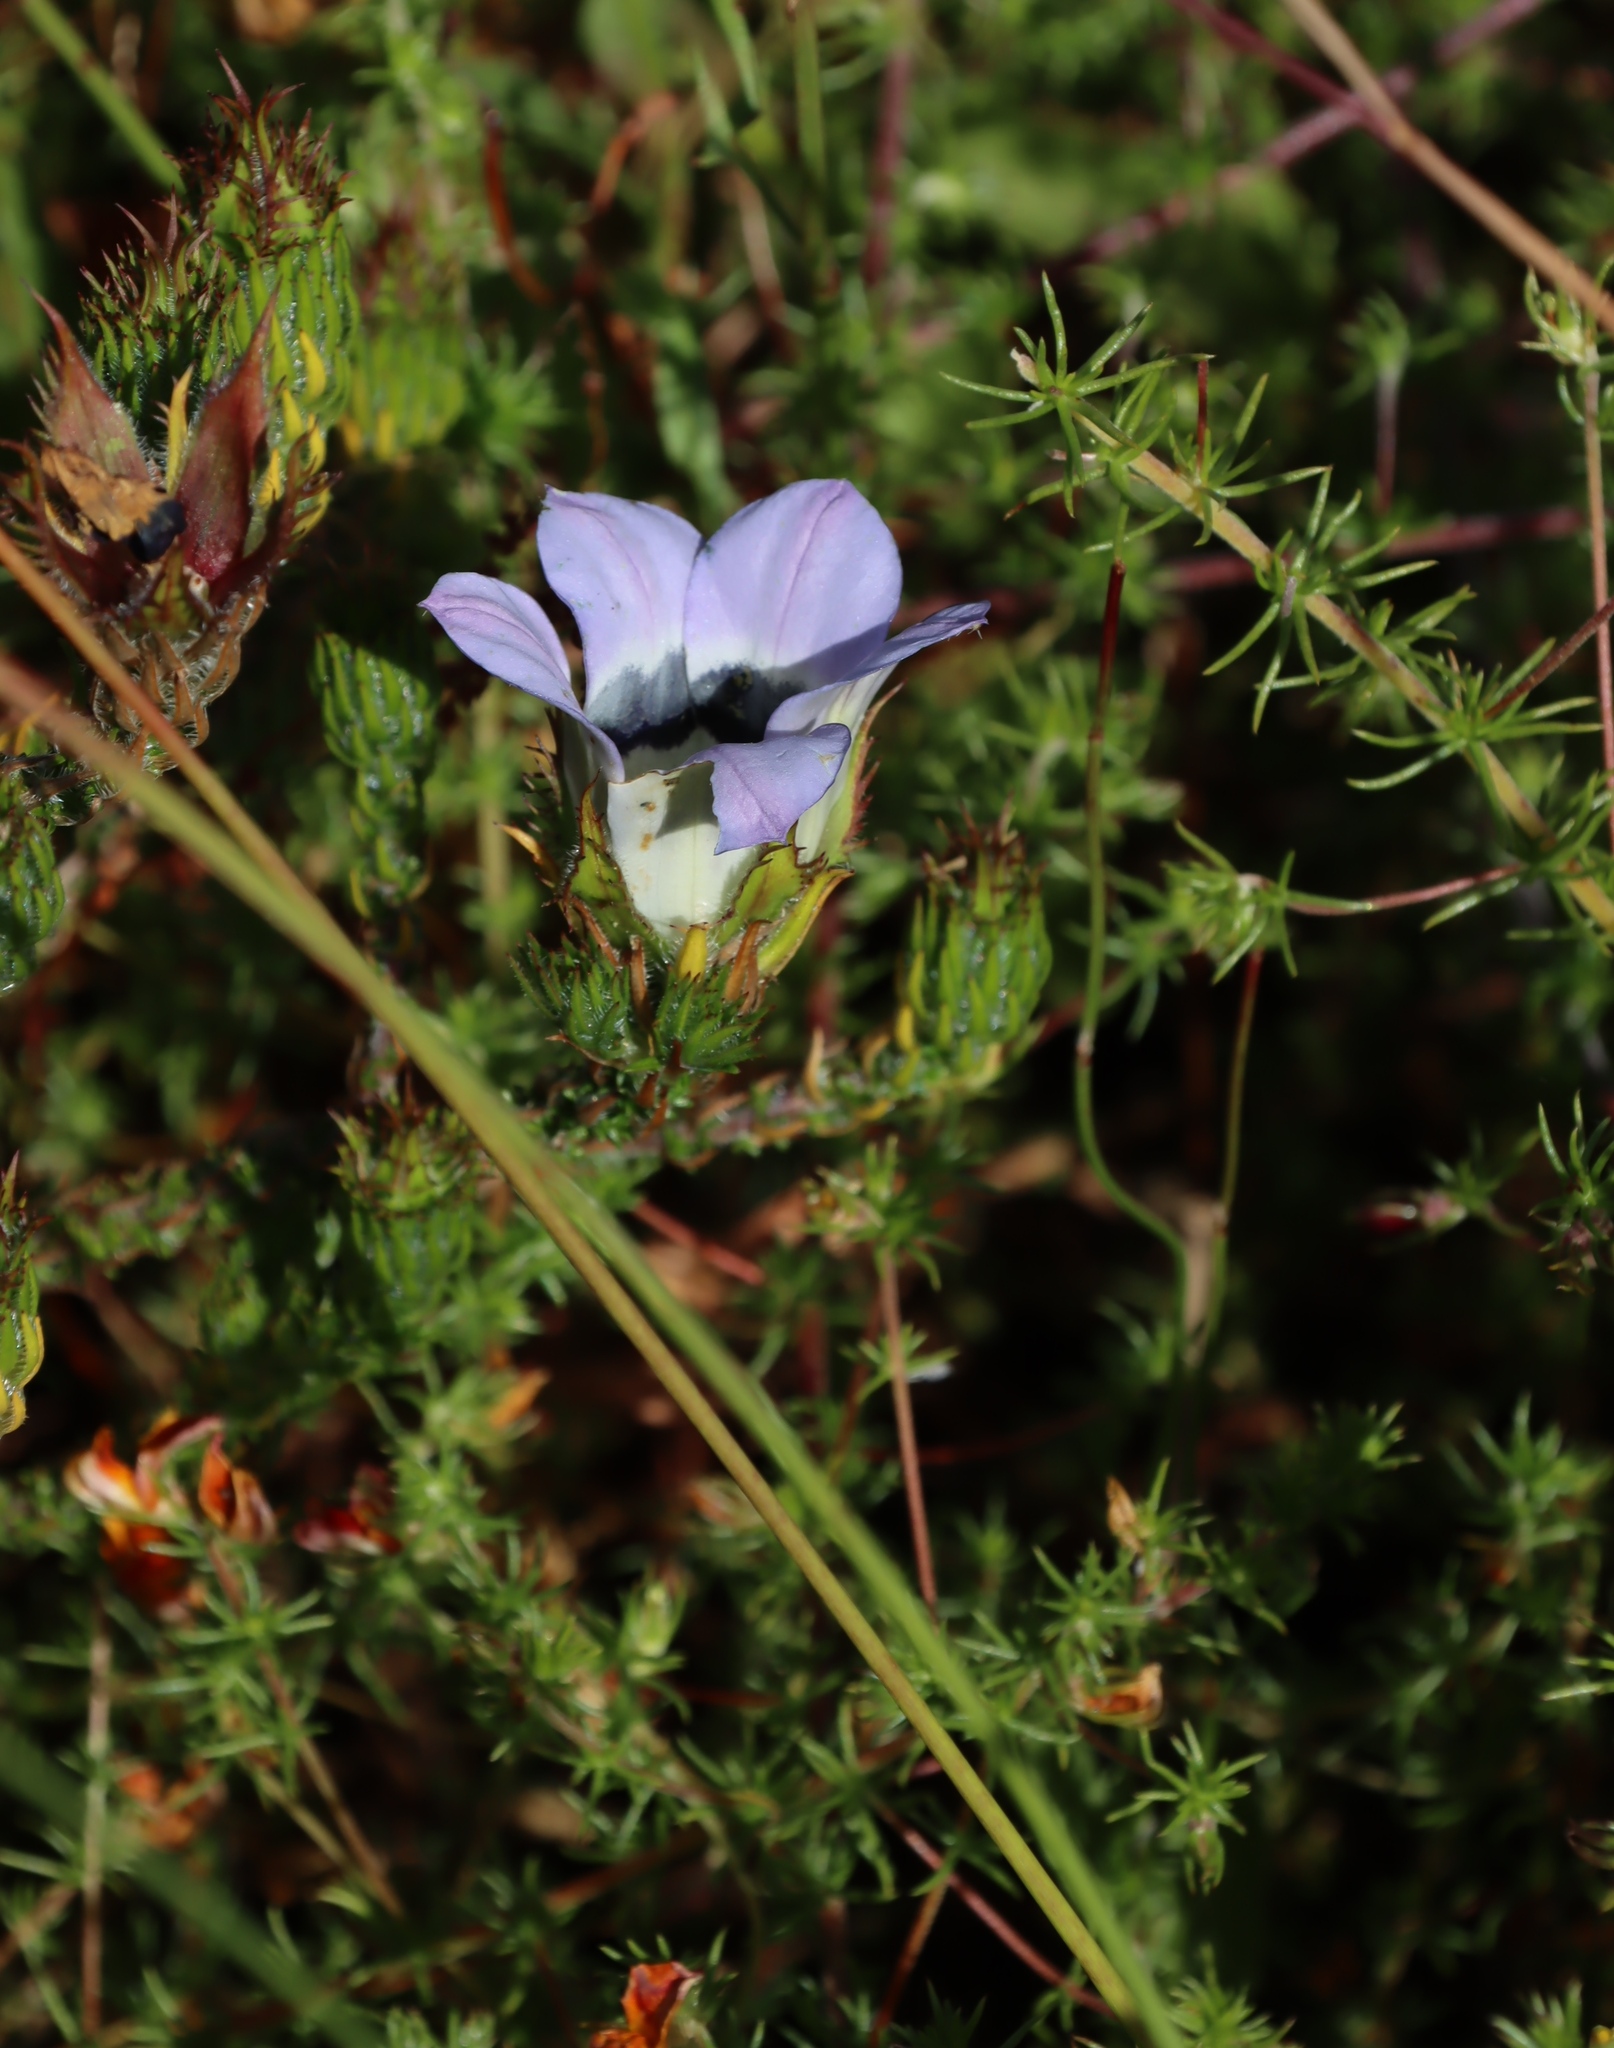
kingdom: Plantae
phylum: Tracheophyta
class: Magnoliopsida
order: Asterales
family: Campanulaceae
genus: Roella
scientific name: Roella ciliata
